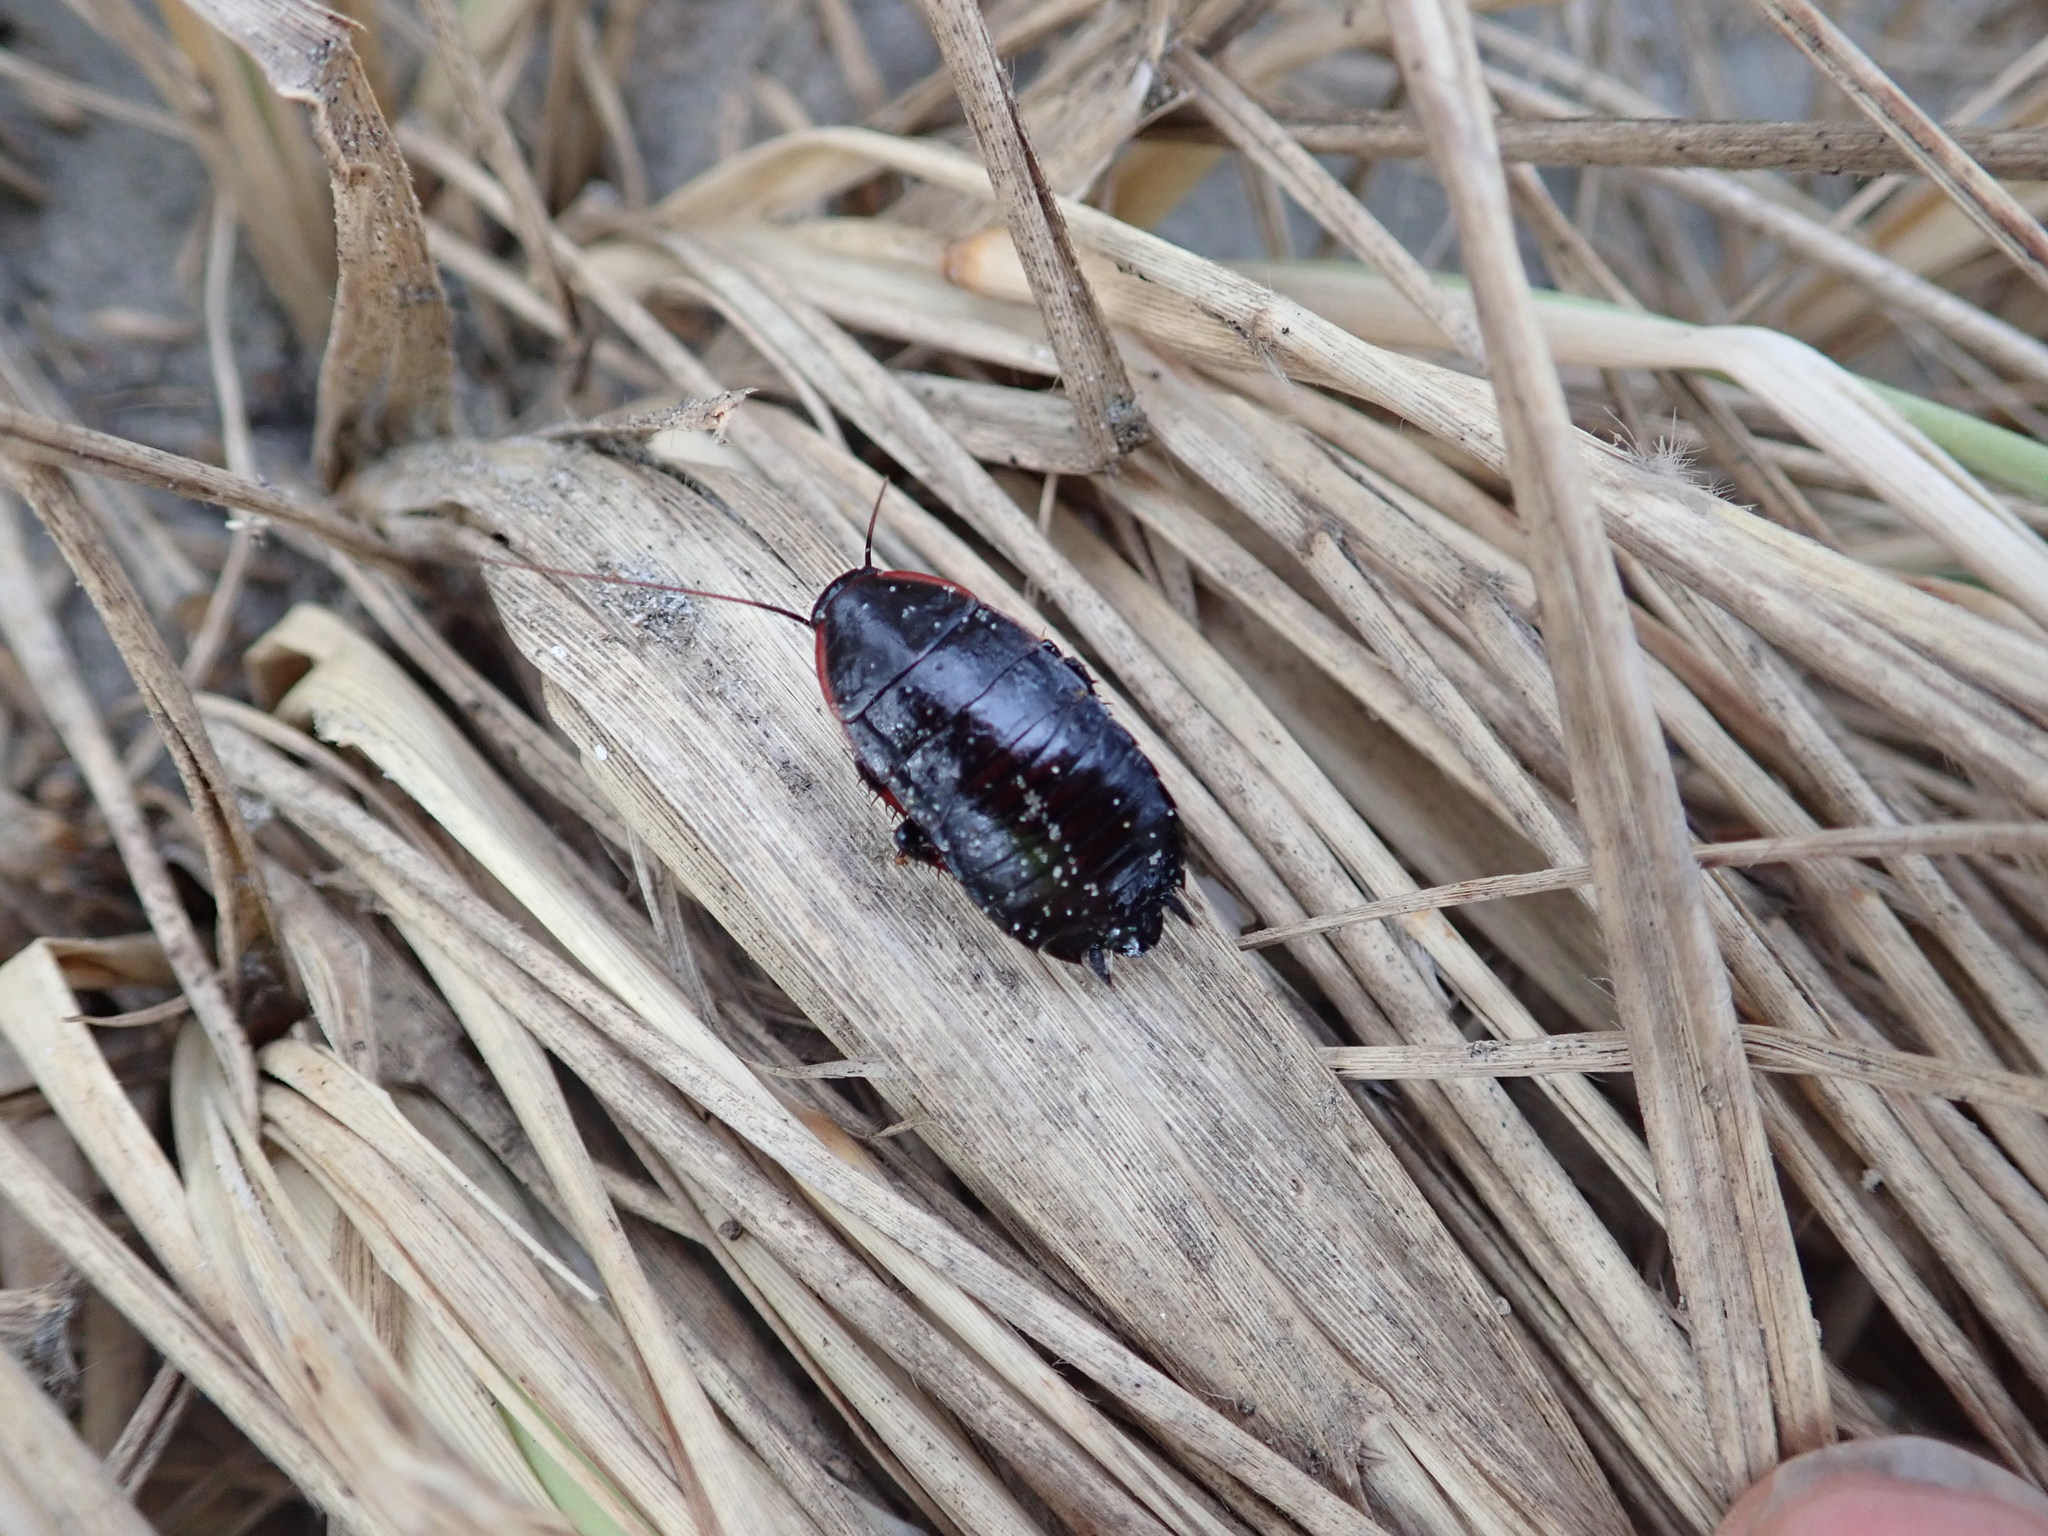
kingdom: Animalia
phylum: Arthropoda
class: Insecta
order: Blattodea
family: Blattidae
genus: Maoriblatta
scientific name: Maoriblatta novaeseelandiae
